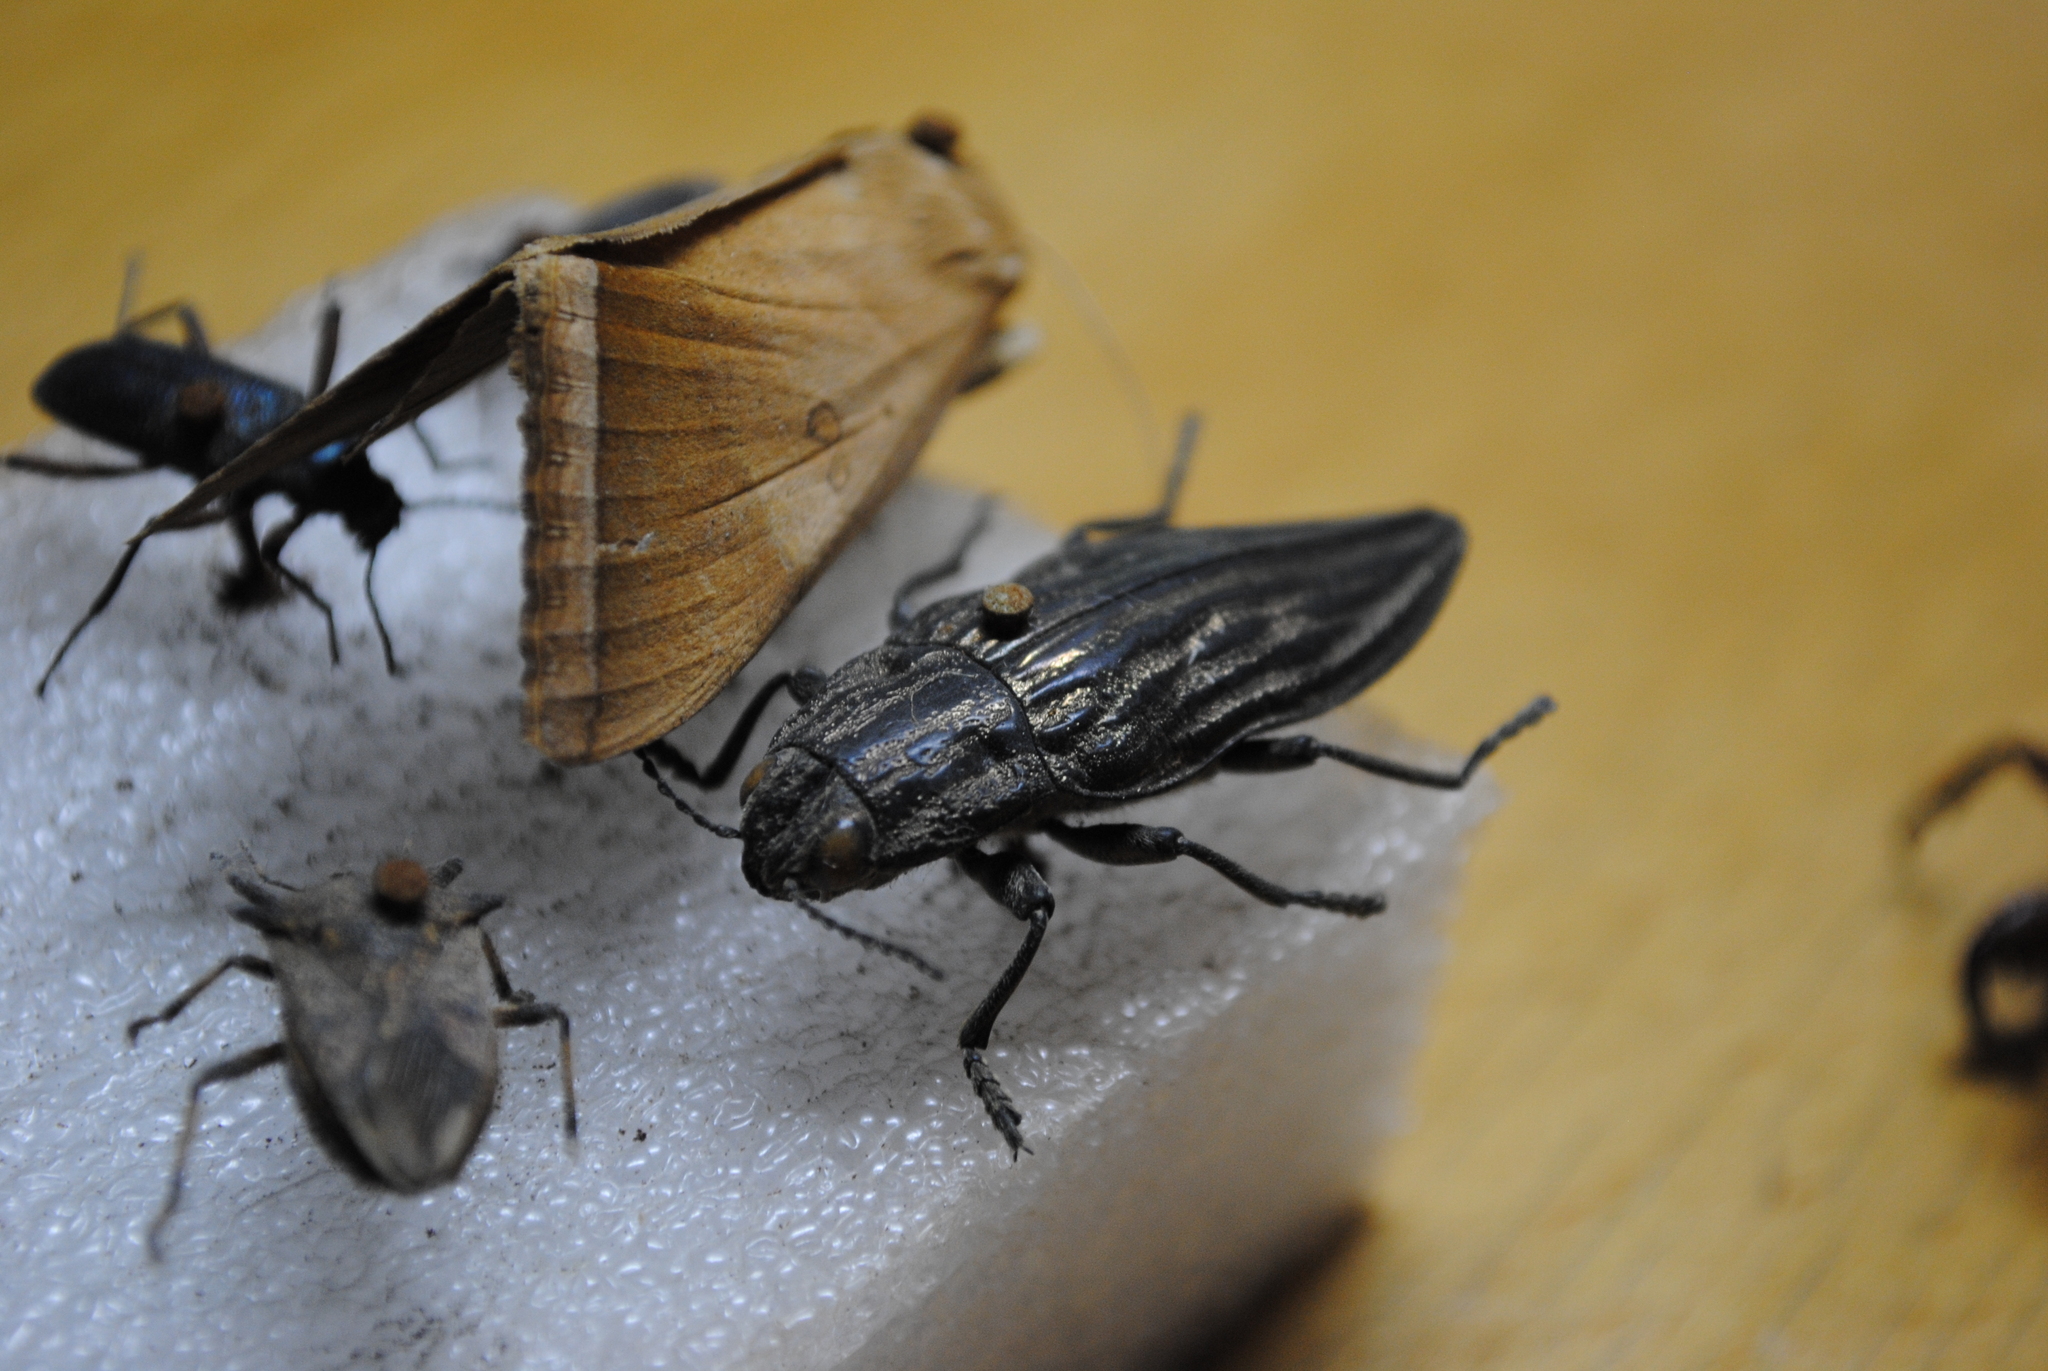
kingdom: Animalia
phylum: Arthropoda
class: Insecta
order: Coleoptera
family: Buprestidae
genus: Chalcophora
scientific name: Chalcophora japonica
